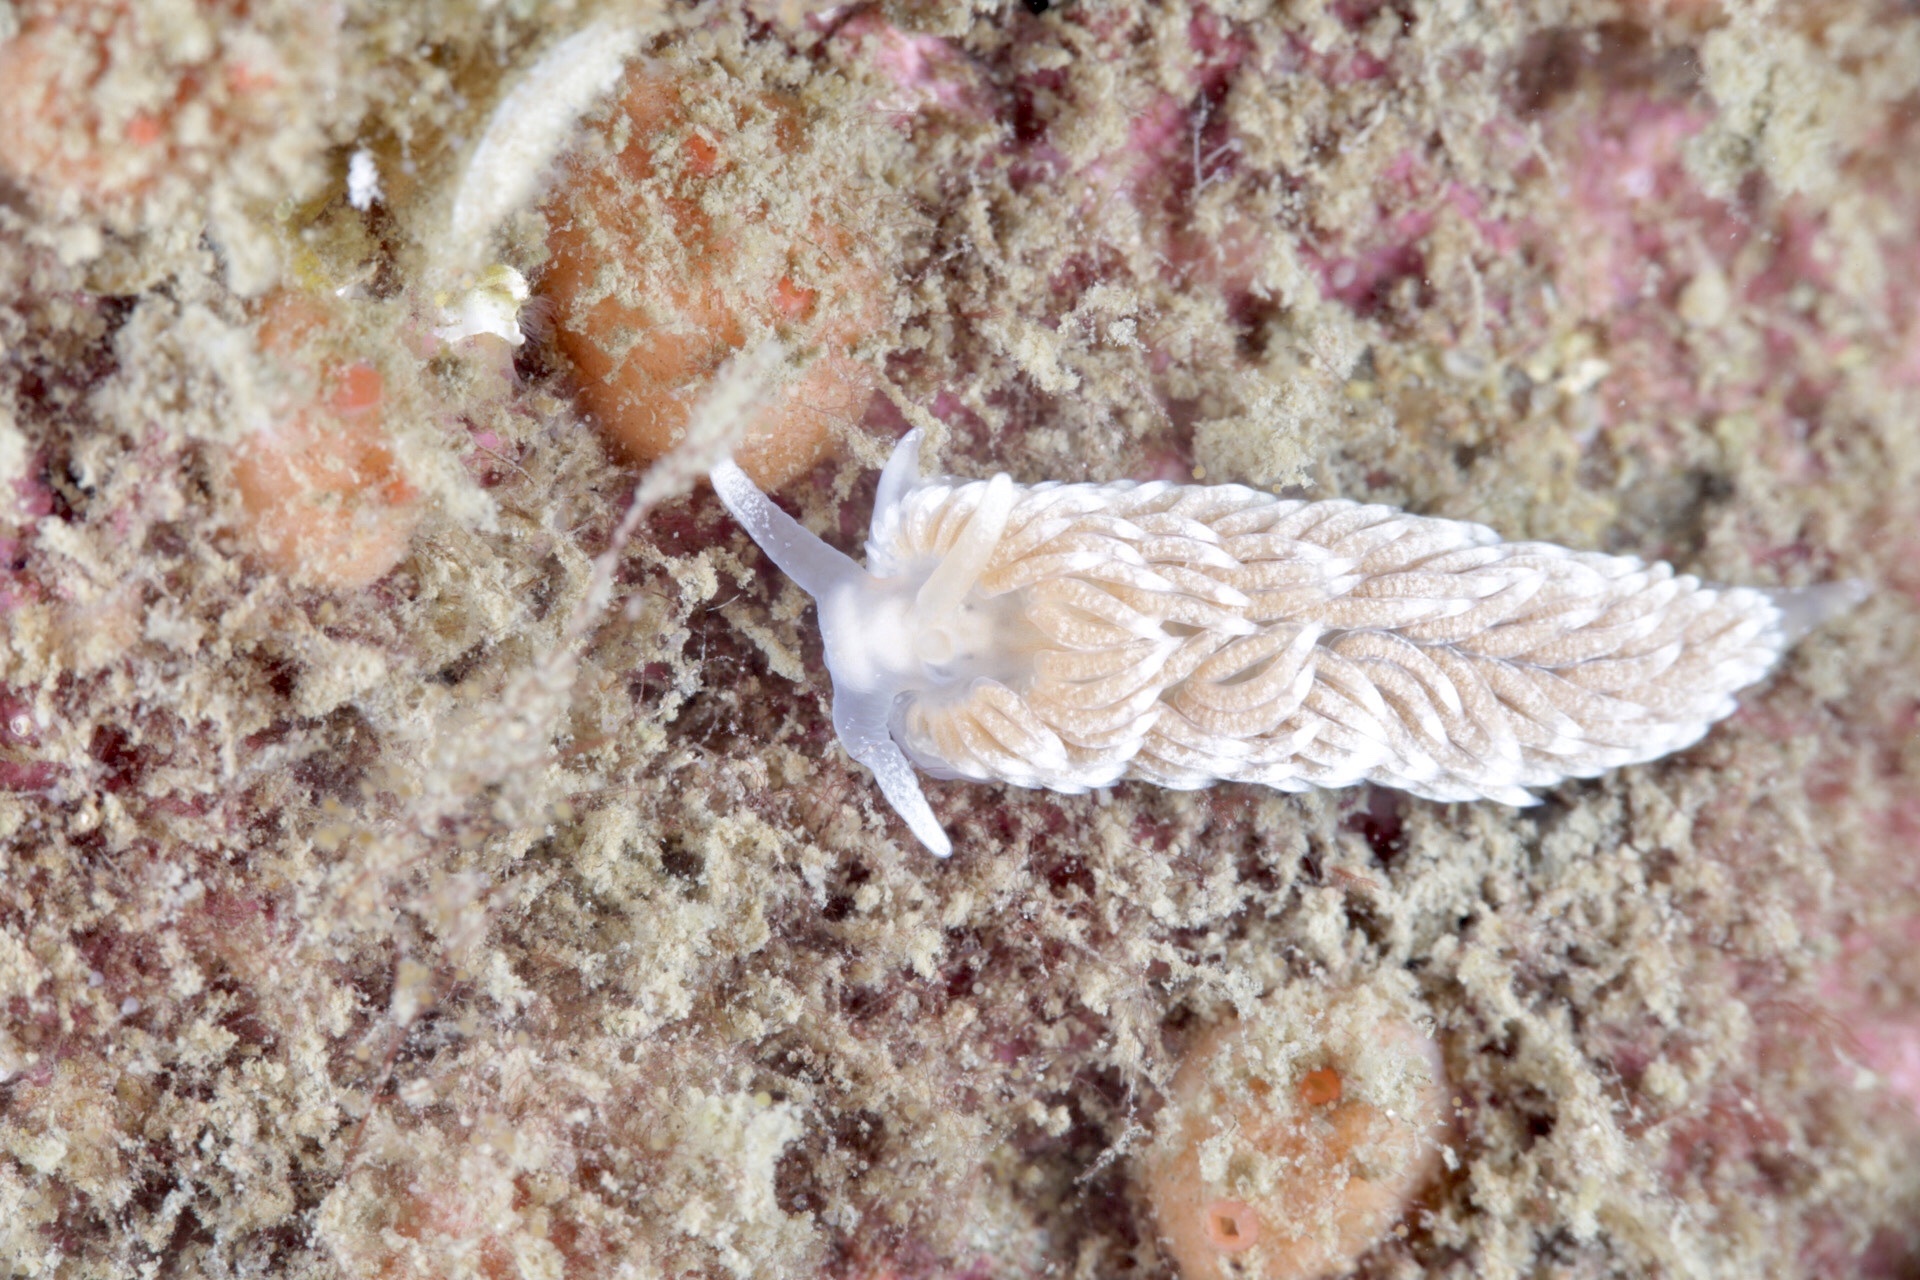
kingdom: Animalia
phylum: Mollusca
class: Gastropoda
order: Nudibranchia
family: Aeolidiidae
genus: Aeolidiella
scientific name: Aeolidiella glauca
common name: Orange-brown aeolid
